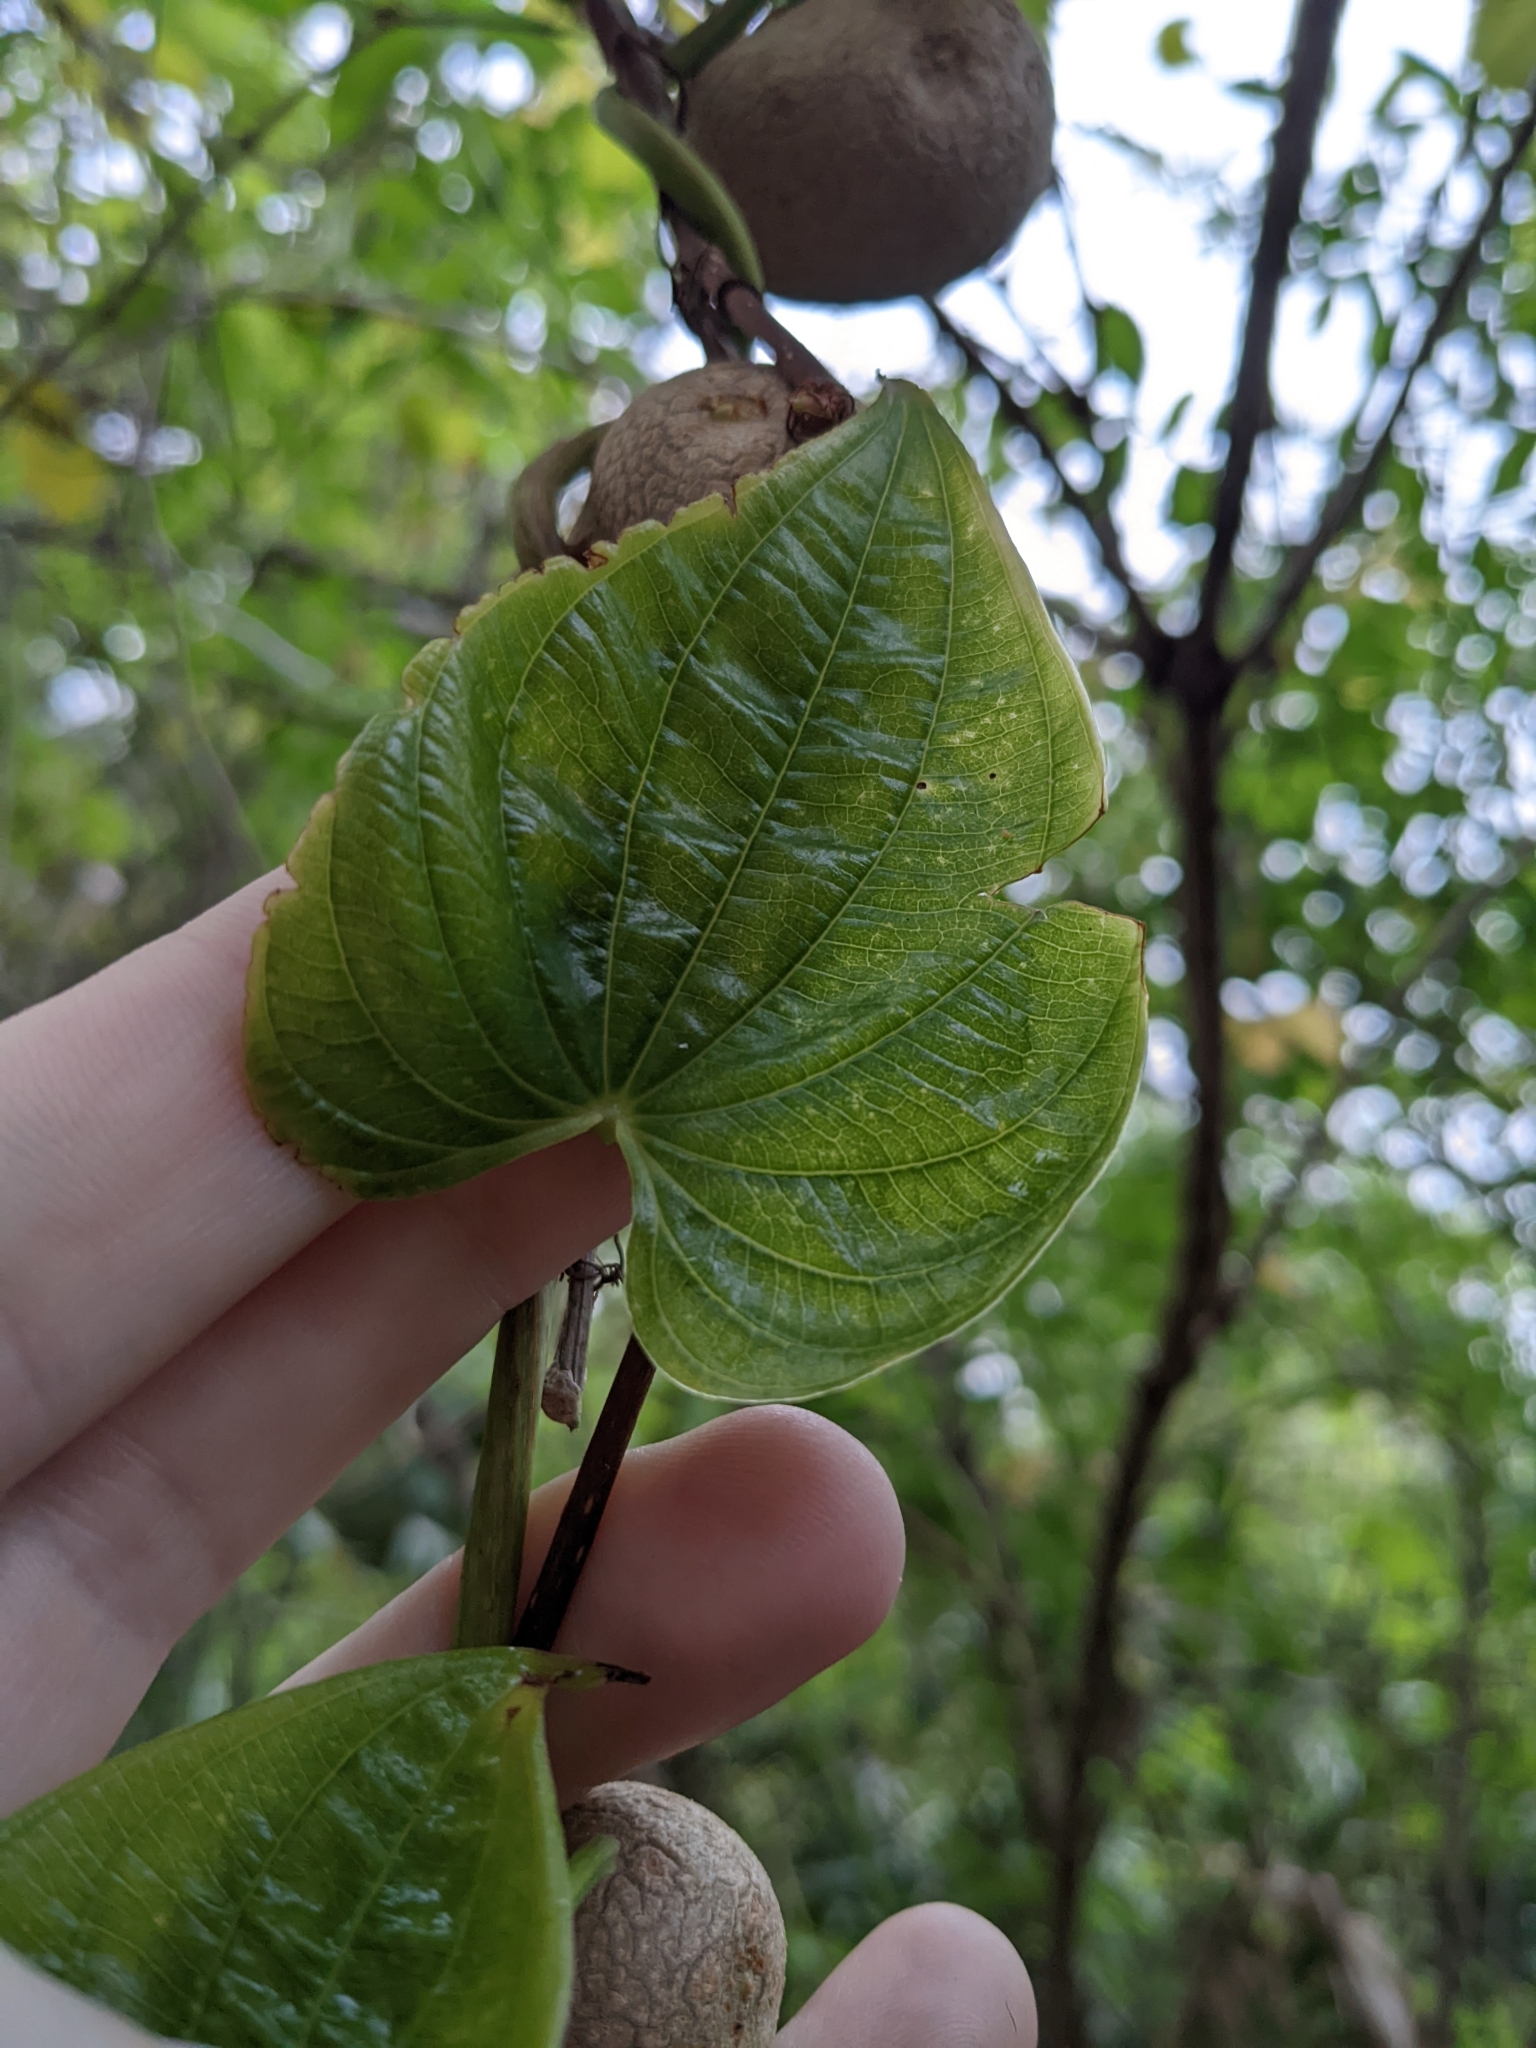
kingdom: Plantae
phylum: Tracheophyta
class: Liliopsida
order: Dioscoreales
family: Dioscoreaceae
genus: Dioscorea
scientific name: Dioscorea bulbifera
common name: Air yam
